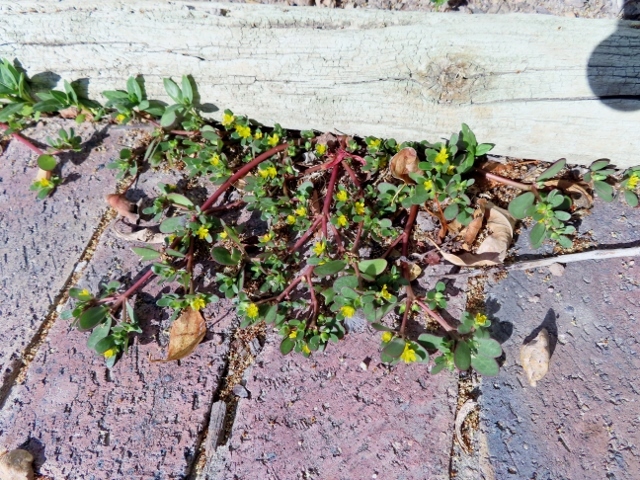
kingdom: Plantae
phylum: Tracheophyta
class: Magnoliopsida
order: Caryophyllales
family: Portulacaceae
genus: Portulaca
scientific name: Portulaca oleracea
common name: Common purslane
